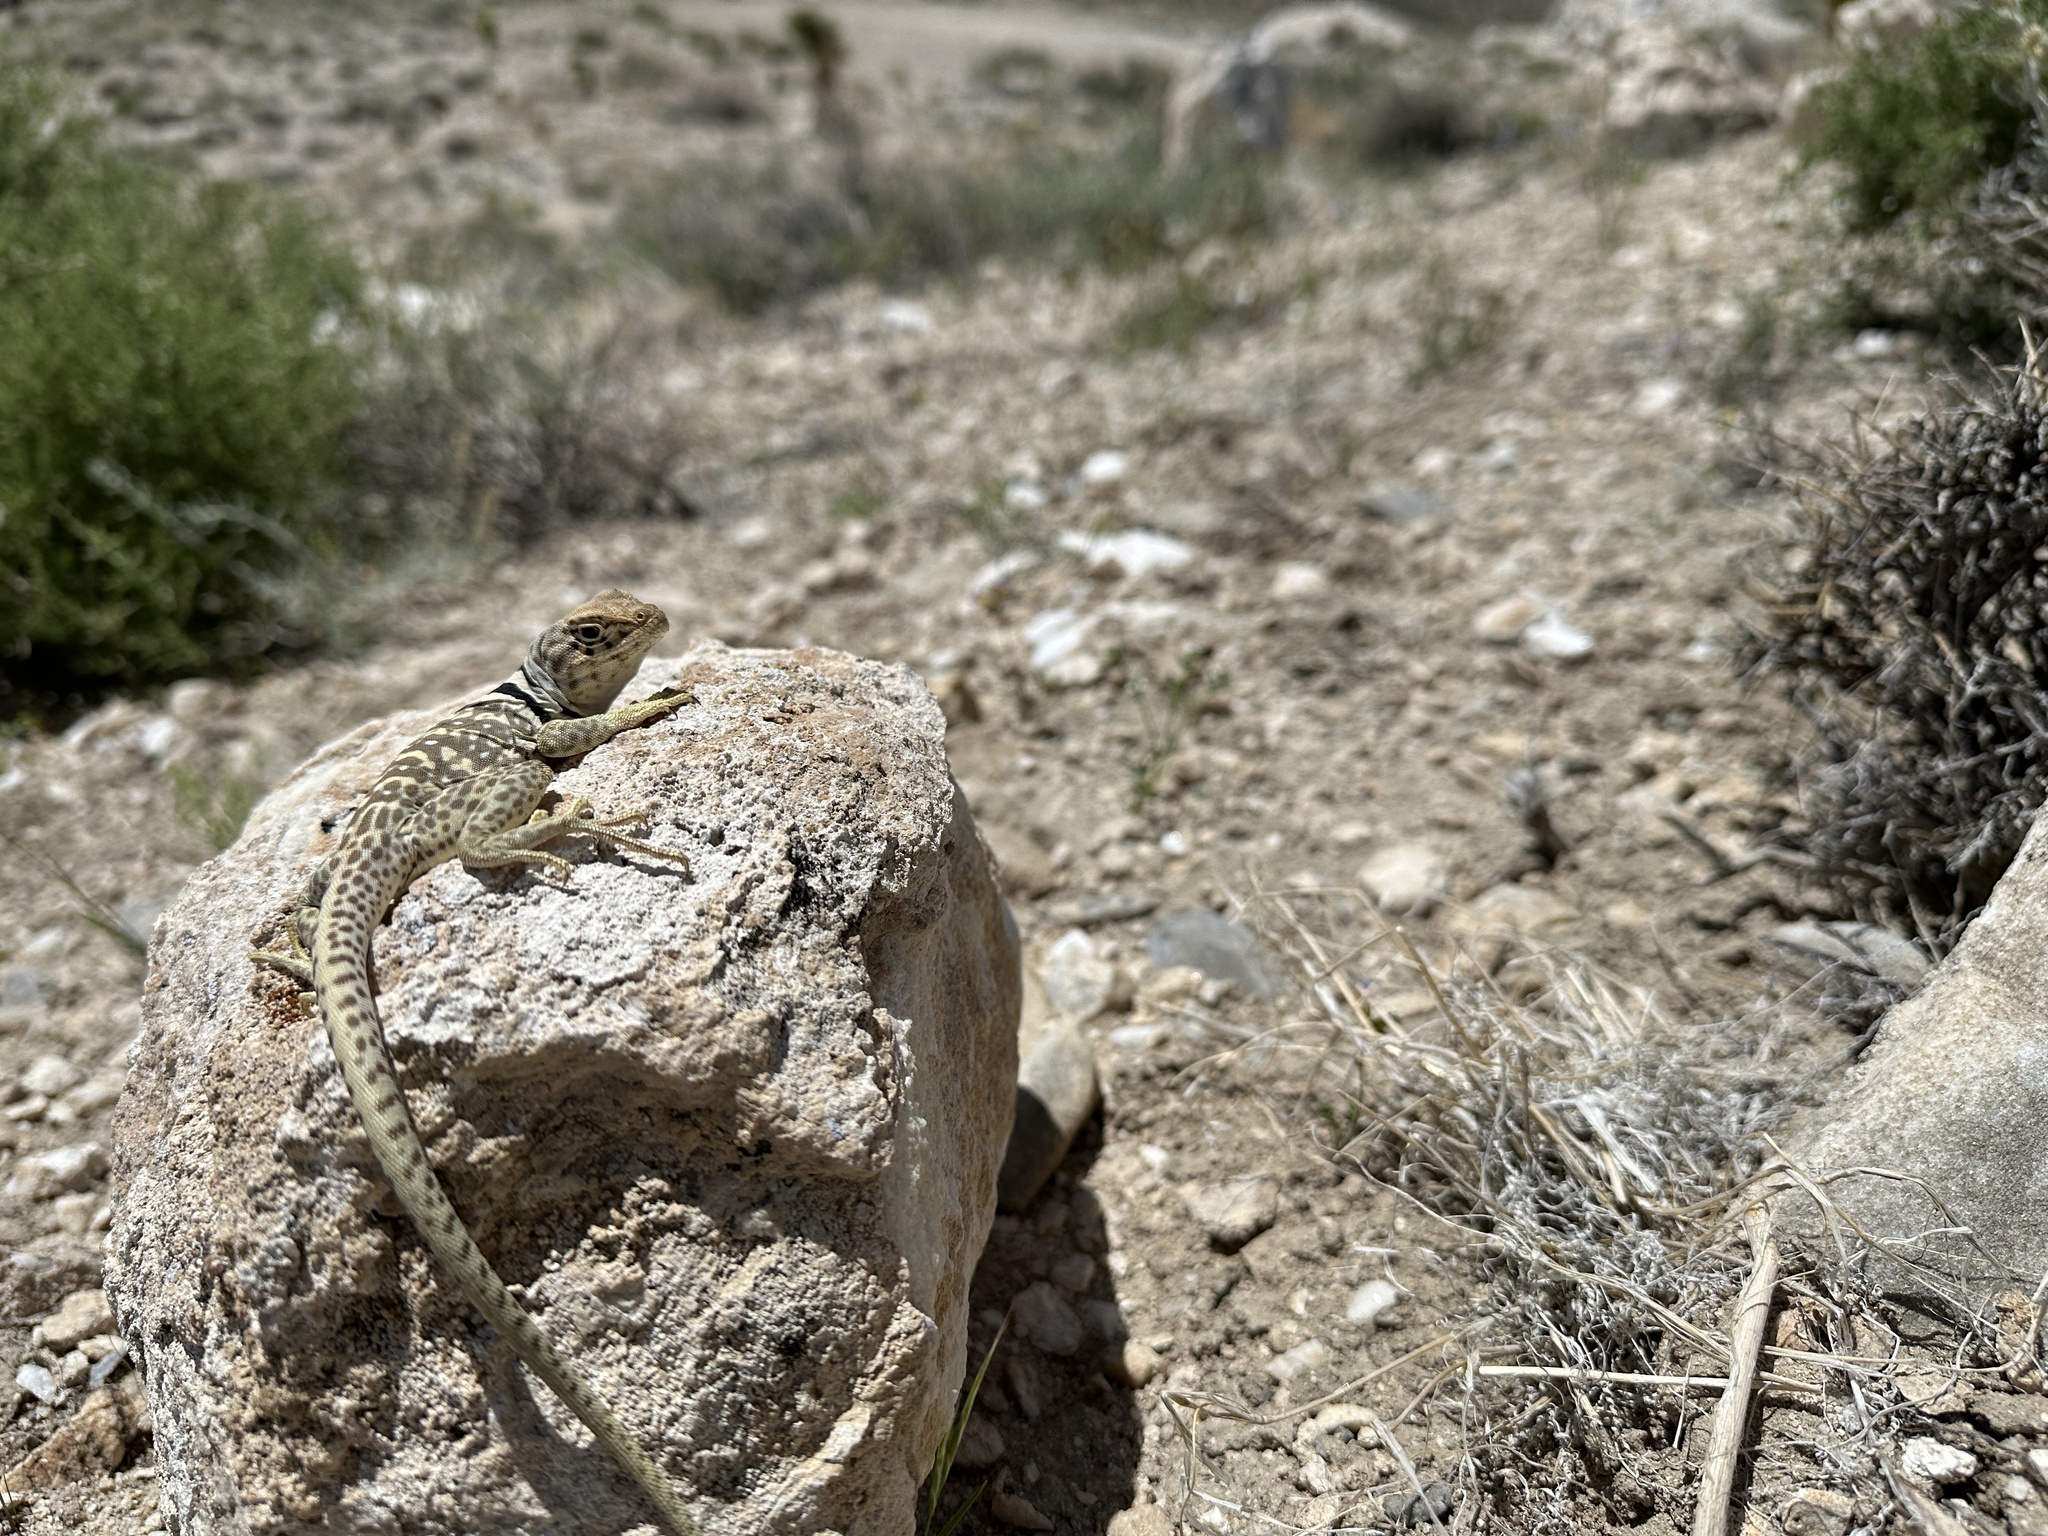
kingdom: Animalia
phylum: Chordata
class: Squamata
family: Crotaphytidae
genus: Crotaphytus
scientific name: Crotaphytus bicinctores
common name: Mojave black-collared lizard
